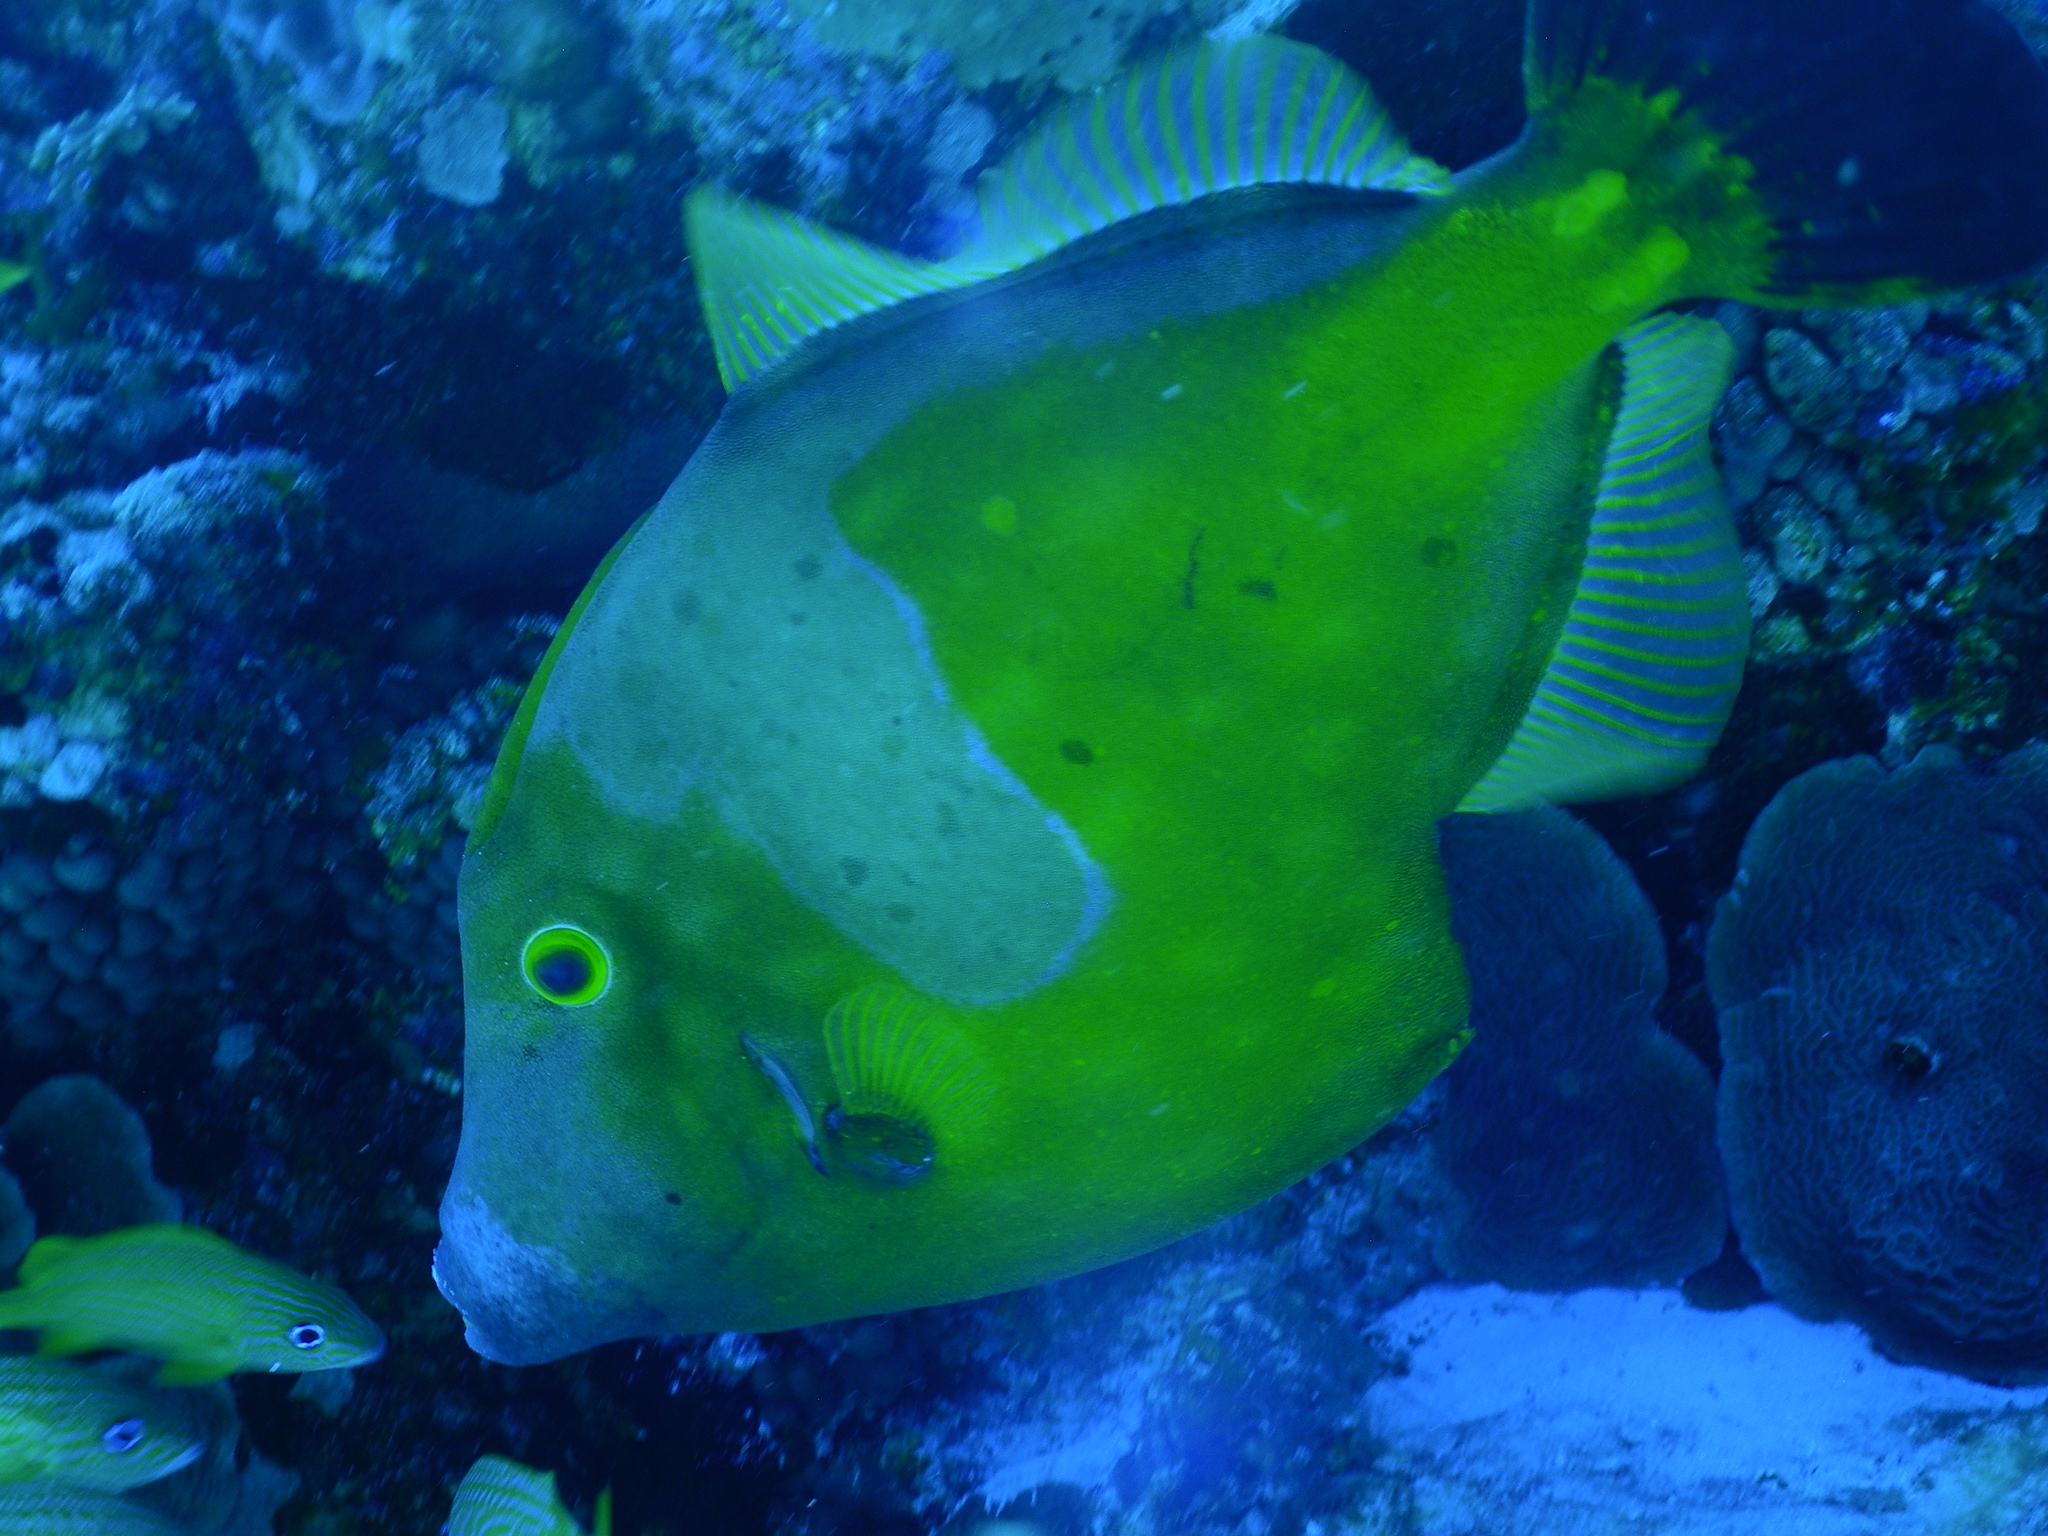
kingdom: Animalia
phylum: Chordata
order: Tetraodontiformes
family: Monacanthidae
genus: Cantherhines
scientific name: Cantherhines macrocerus
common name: Whitespotted filefish
